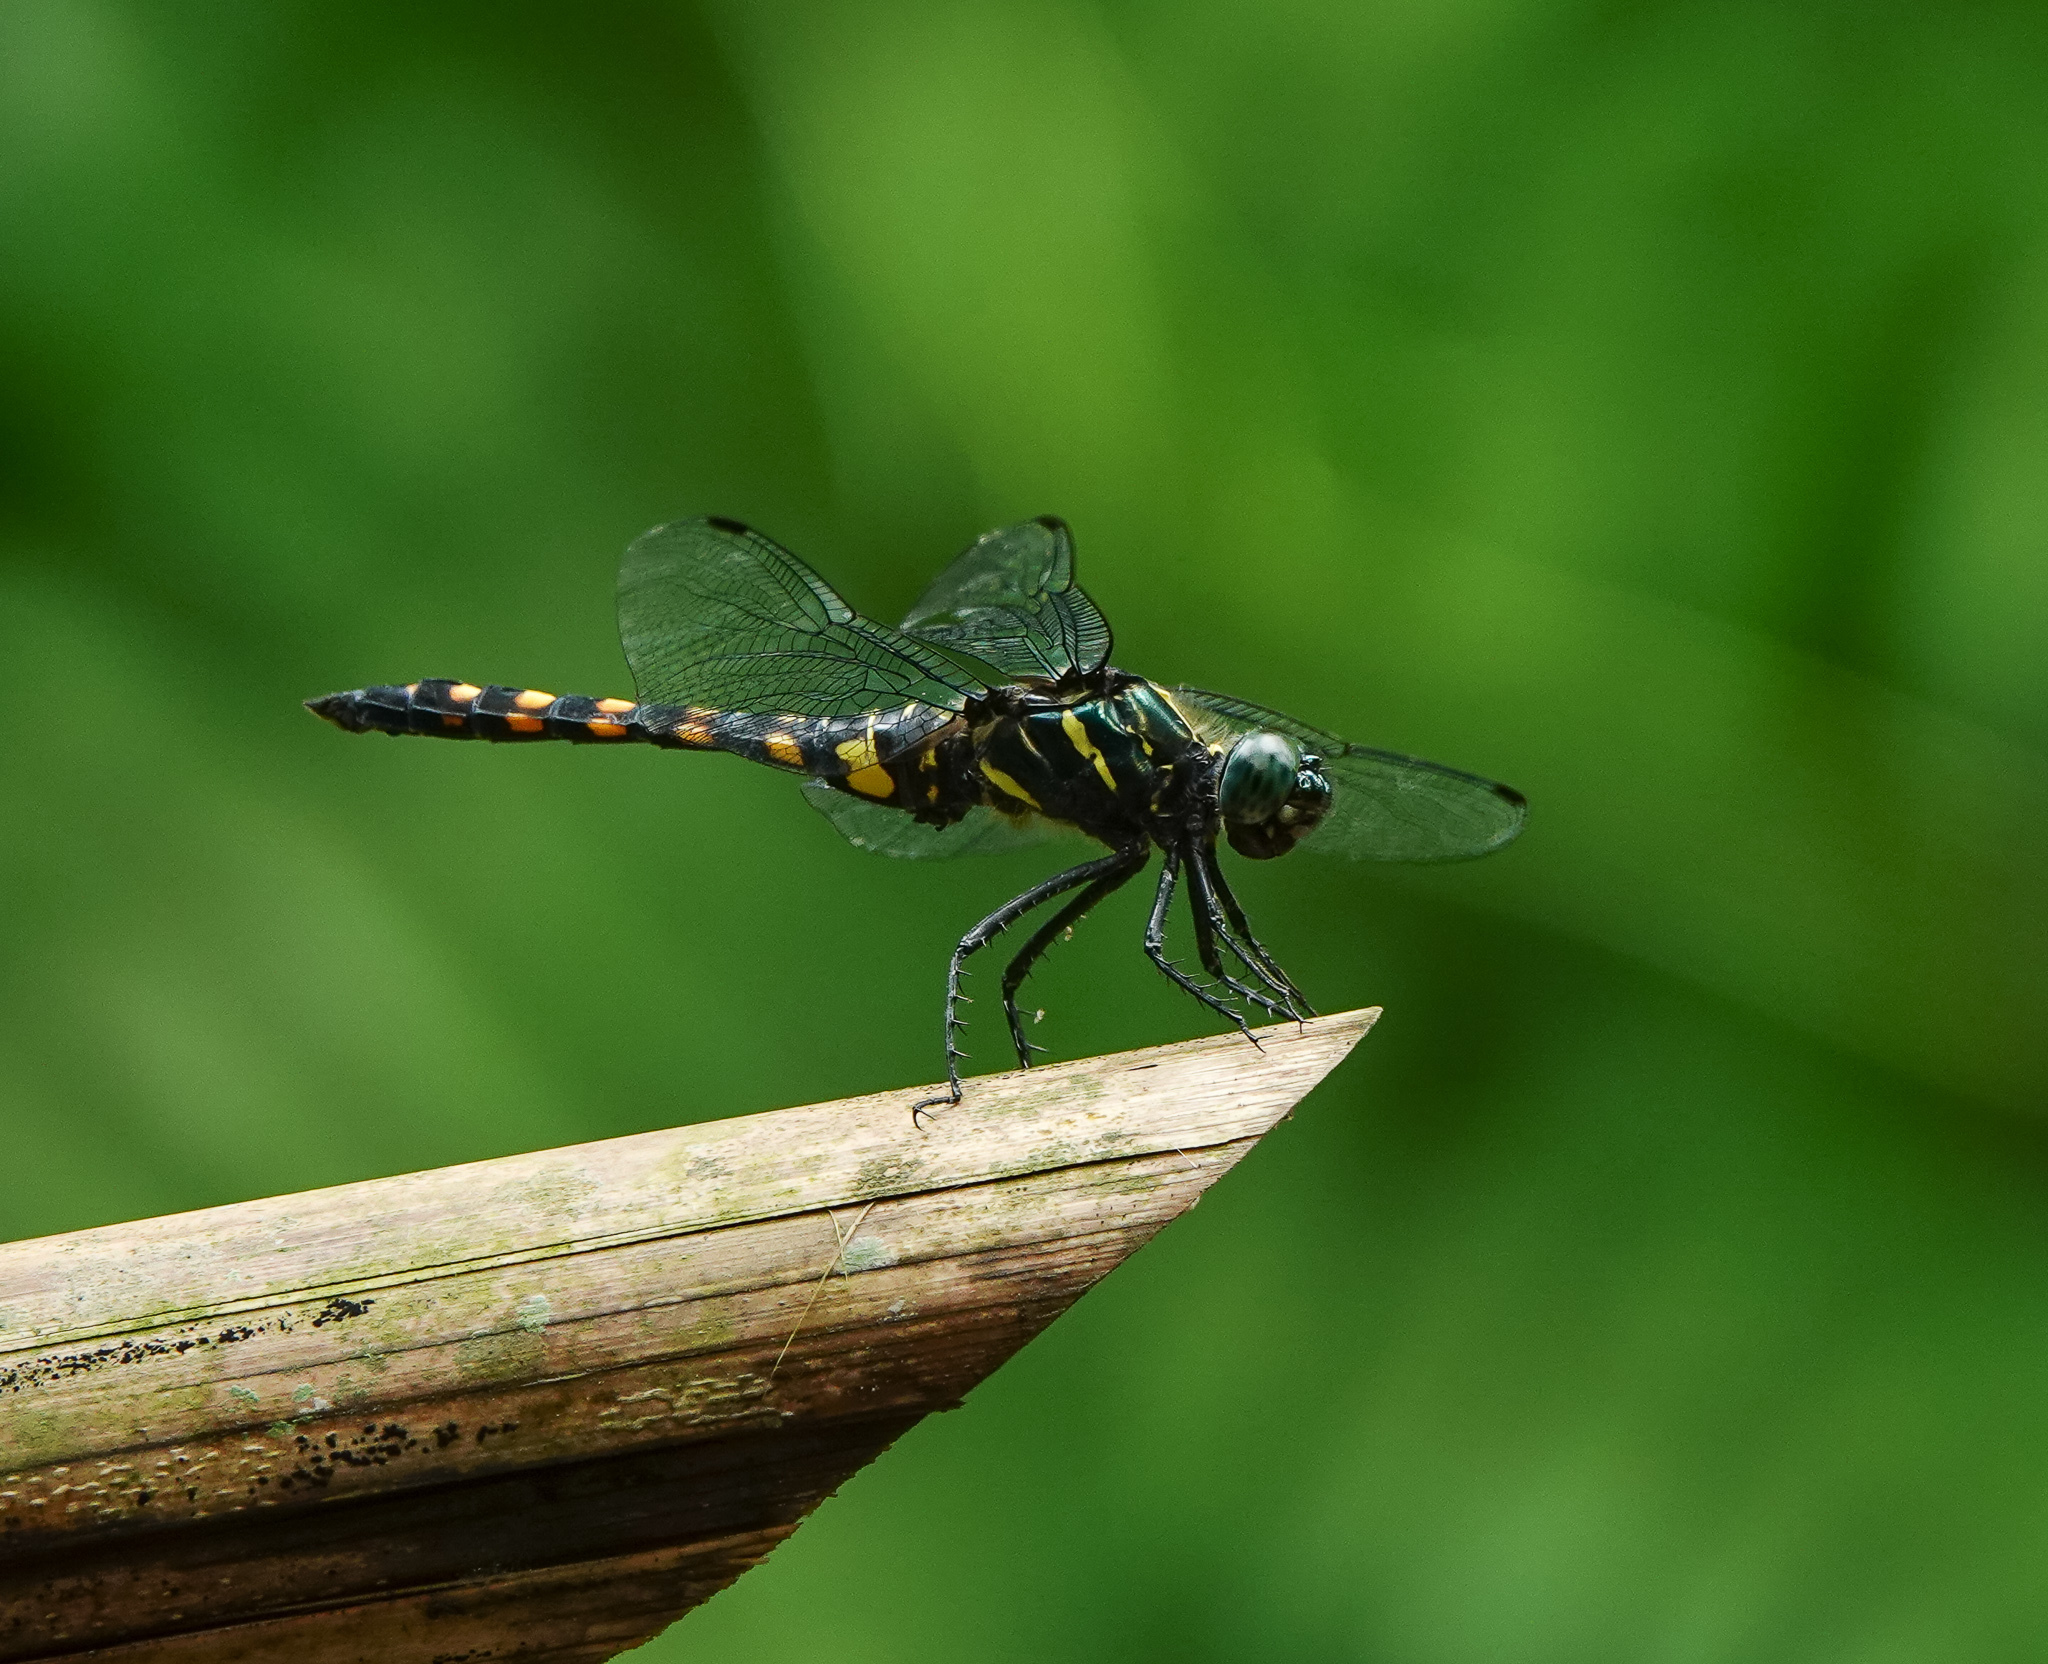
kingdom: Animalia
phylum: Arthropoda
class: Insecta
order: Odonata
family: Libellulidae
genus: Onychothemis
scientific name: Onychothemis testacea
